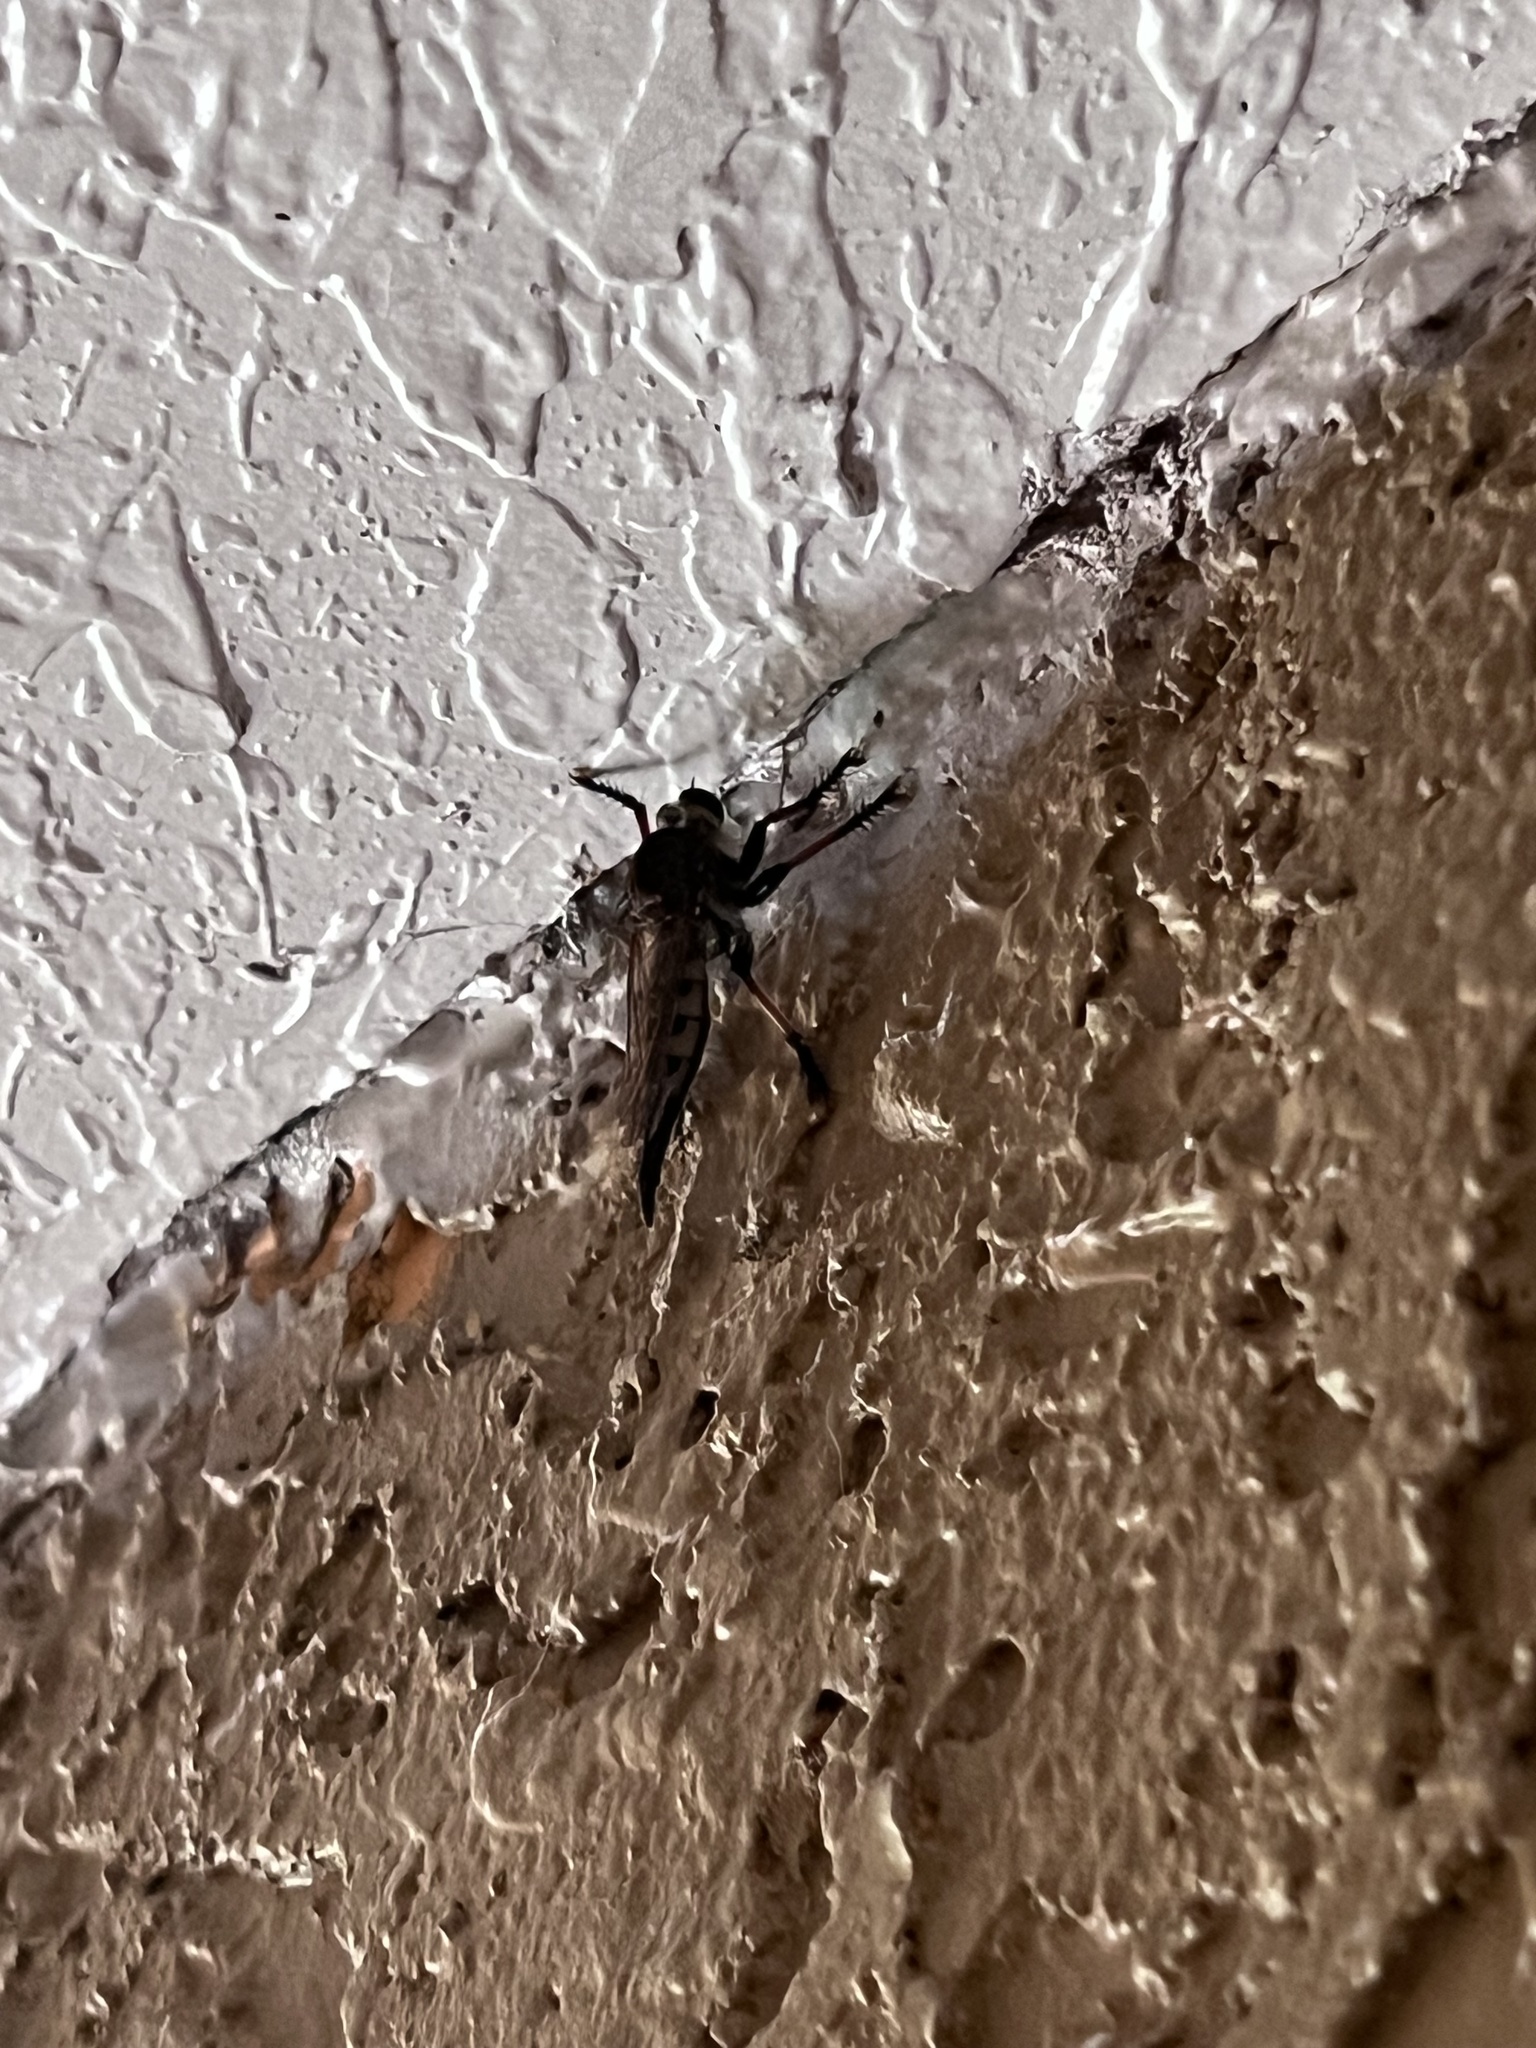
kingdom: Animalia
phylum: Arthropoda
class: Insecta
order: Diptera
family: Asilidae
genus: Promachus
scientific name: Promachus rufipes
